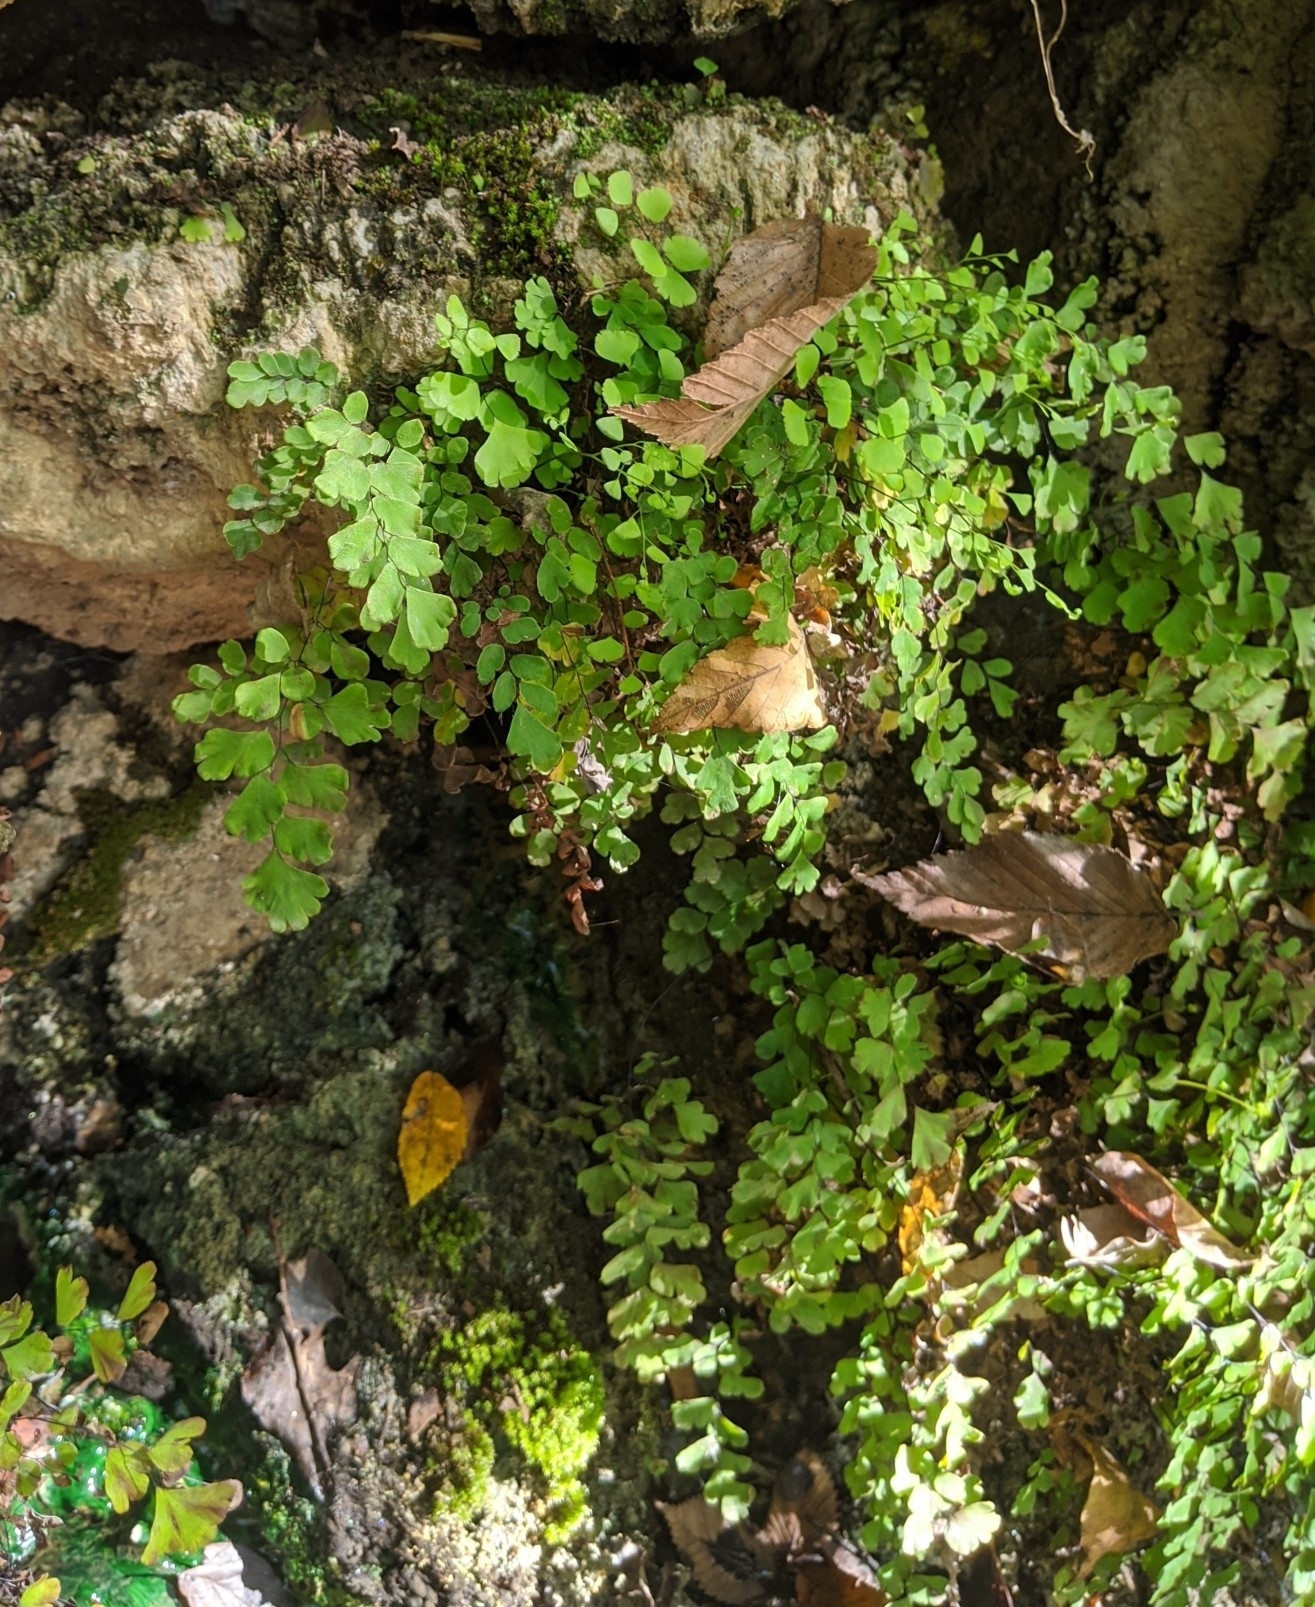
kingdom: Plantae
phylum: Tracheophyta
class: Polypodiopsida
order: Polypodiales
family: Pteridaceae
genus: Adiantum
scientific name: Adiantum capillus-veneris
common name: Maidenhair fern
